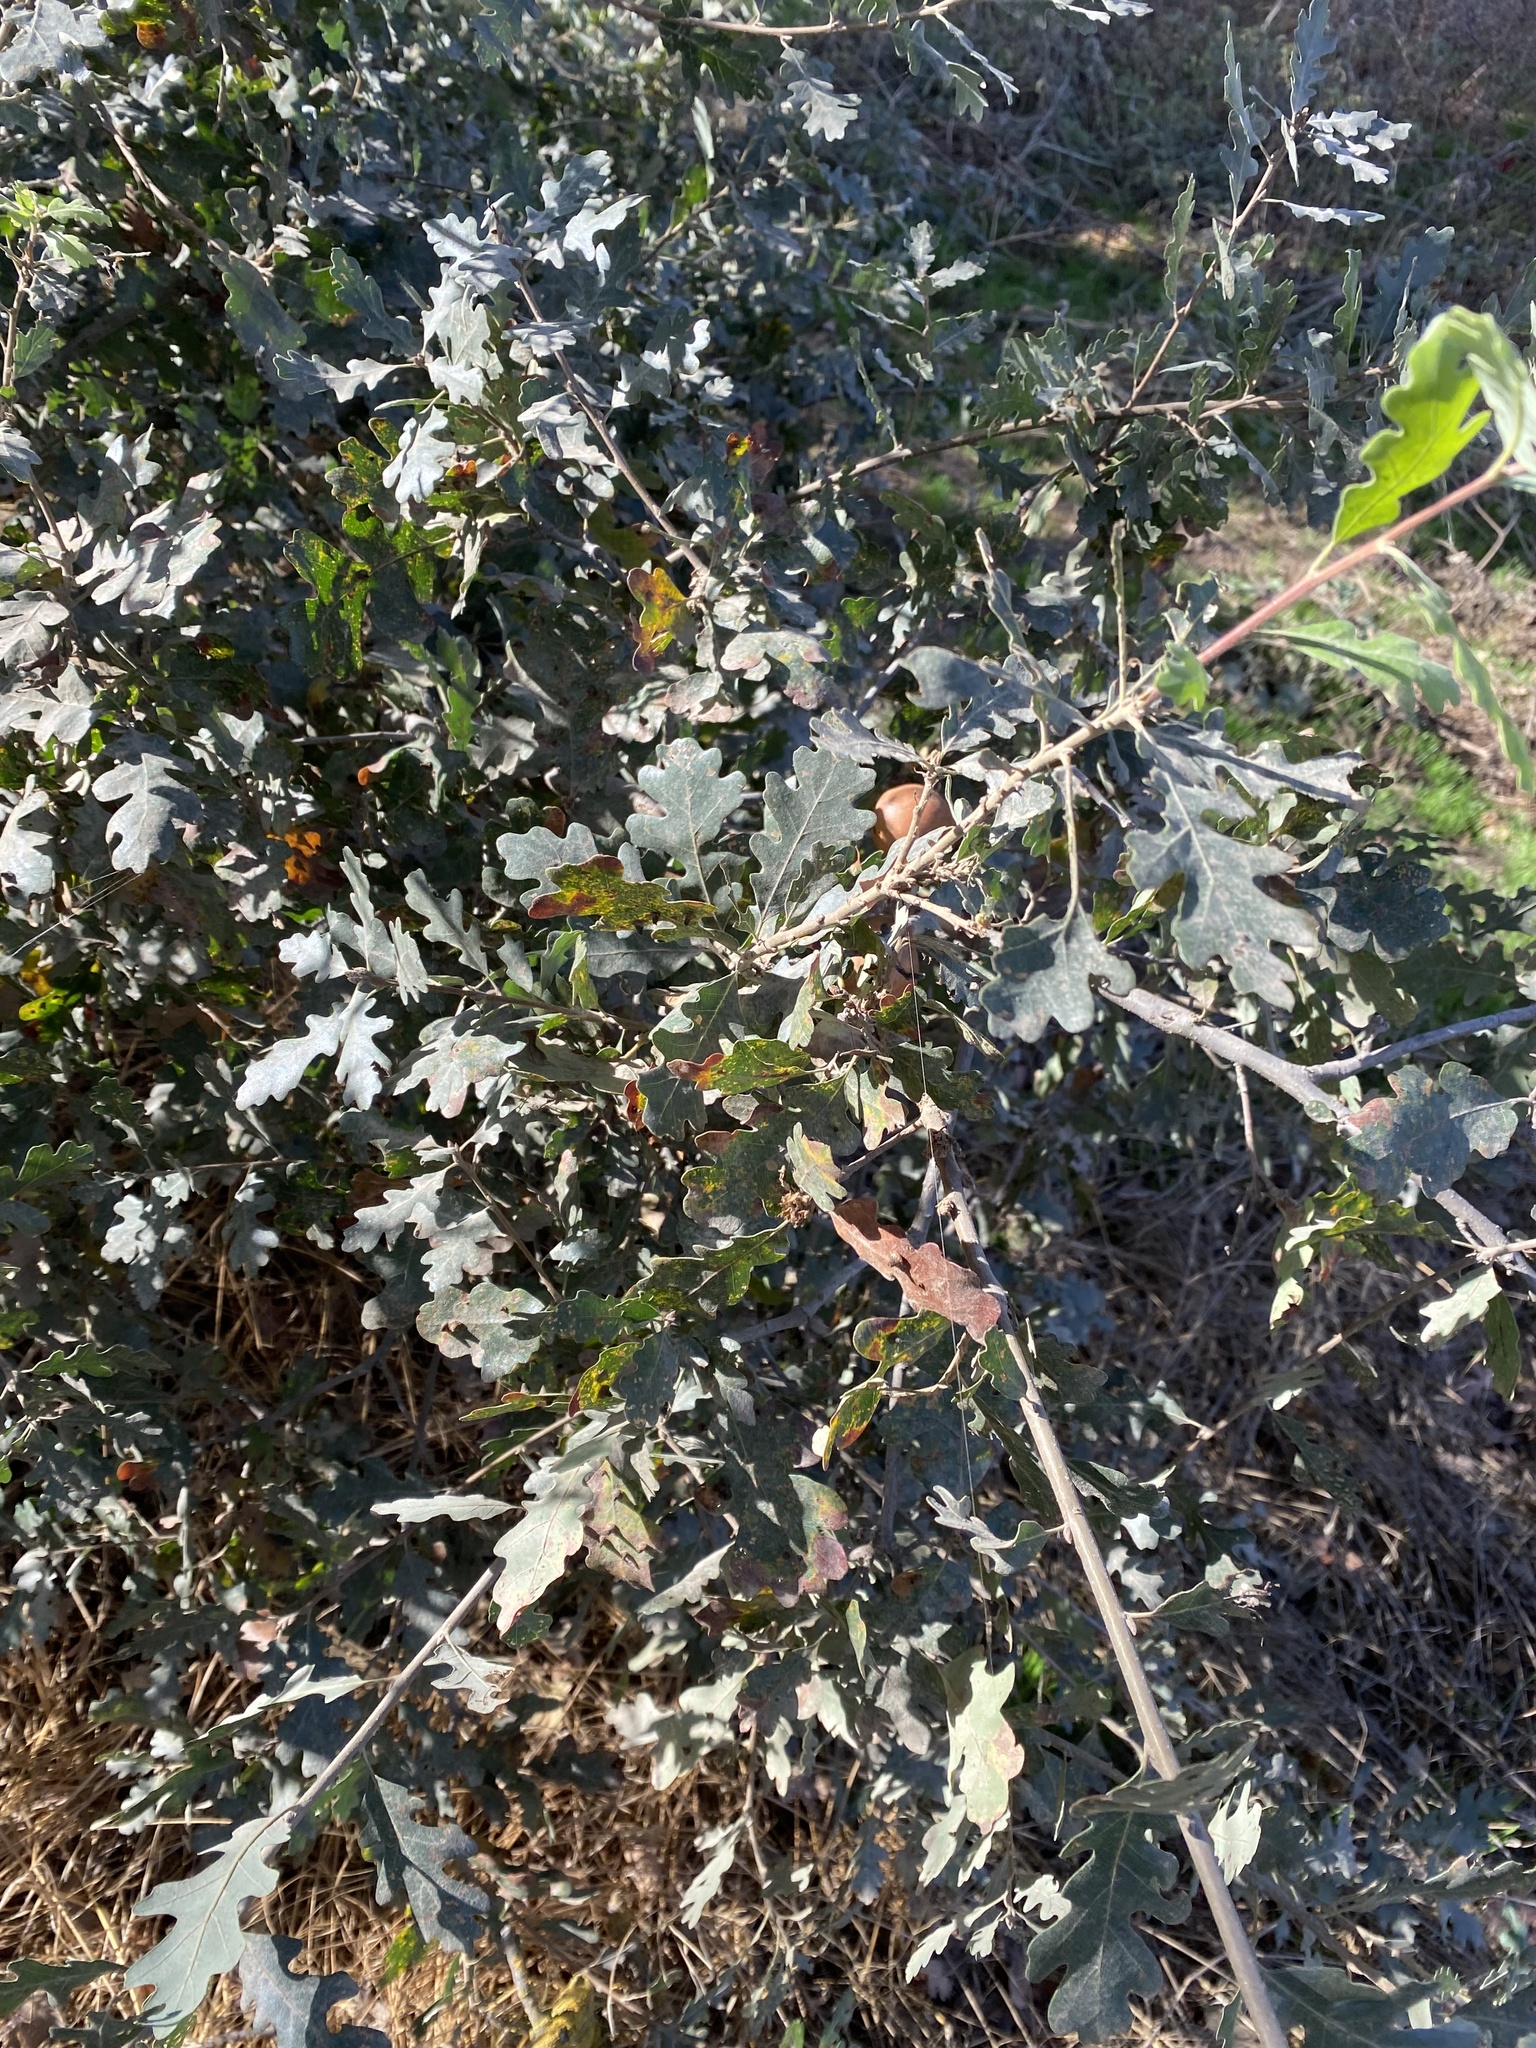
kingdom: Plantae
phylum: Tracheophyta
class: Magnoliopsida
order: Fagales
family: Fagaceae
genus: Quercus
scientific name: Quercus lobata
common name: Valley oak
